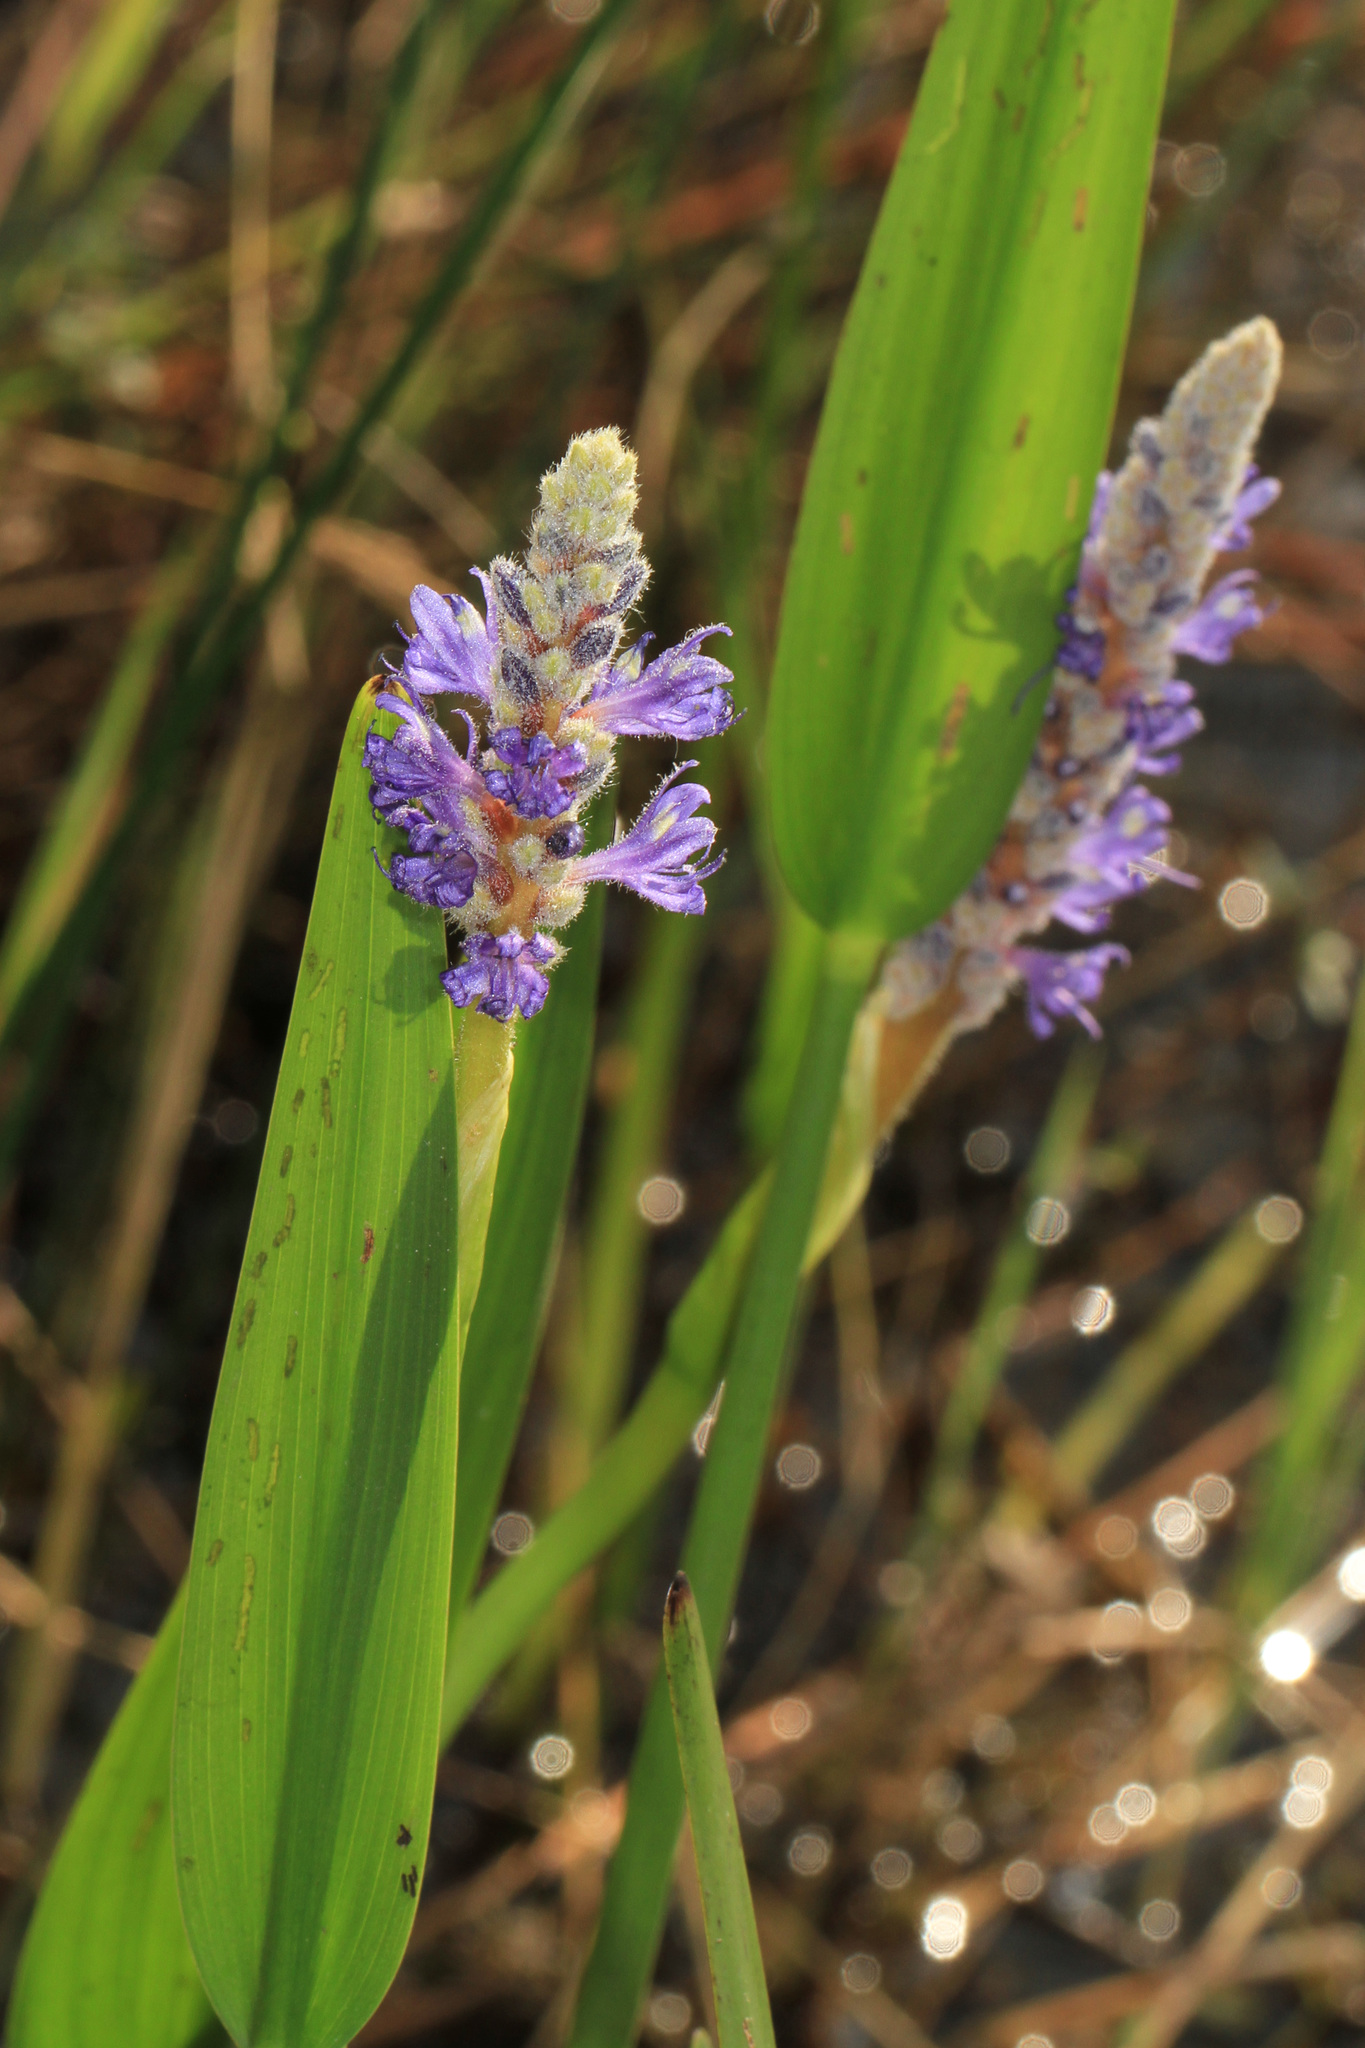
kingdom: Plantae
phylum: Tracheophyta
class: Liliopsida
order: Commelinales
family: Pontederiaceae
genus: Pontederia
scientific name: Pontederia cordata
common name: Pickerelweed
